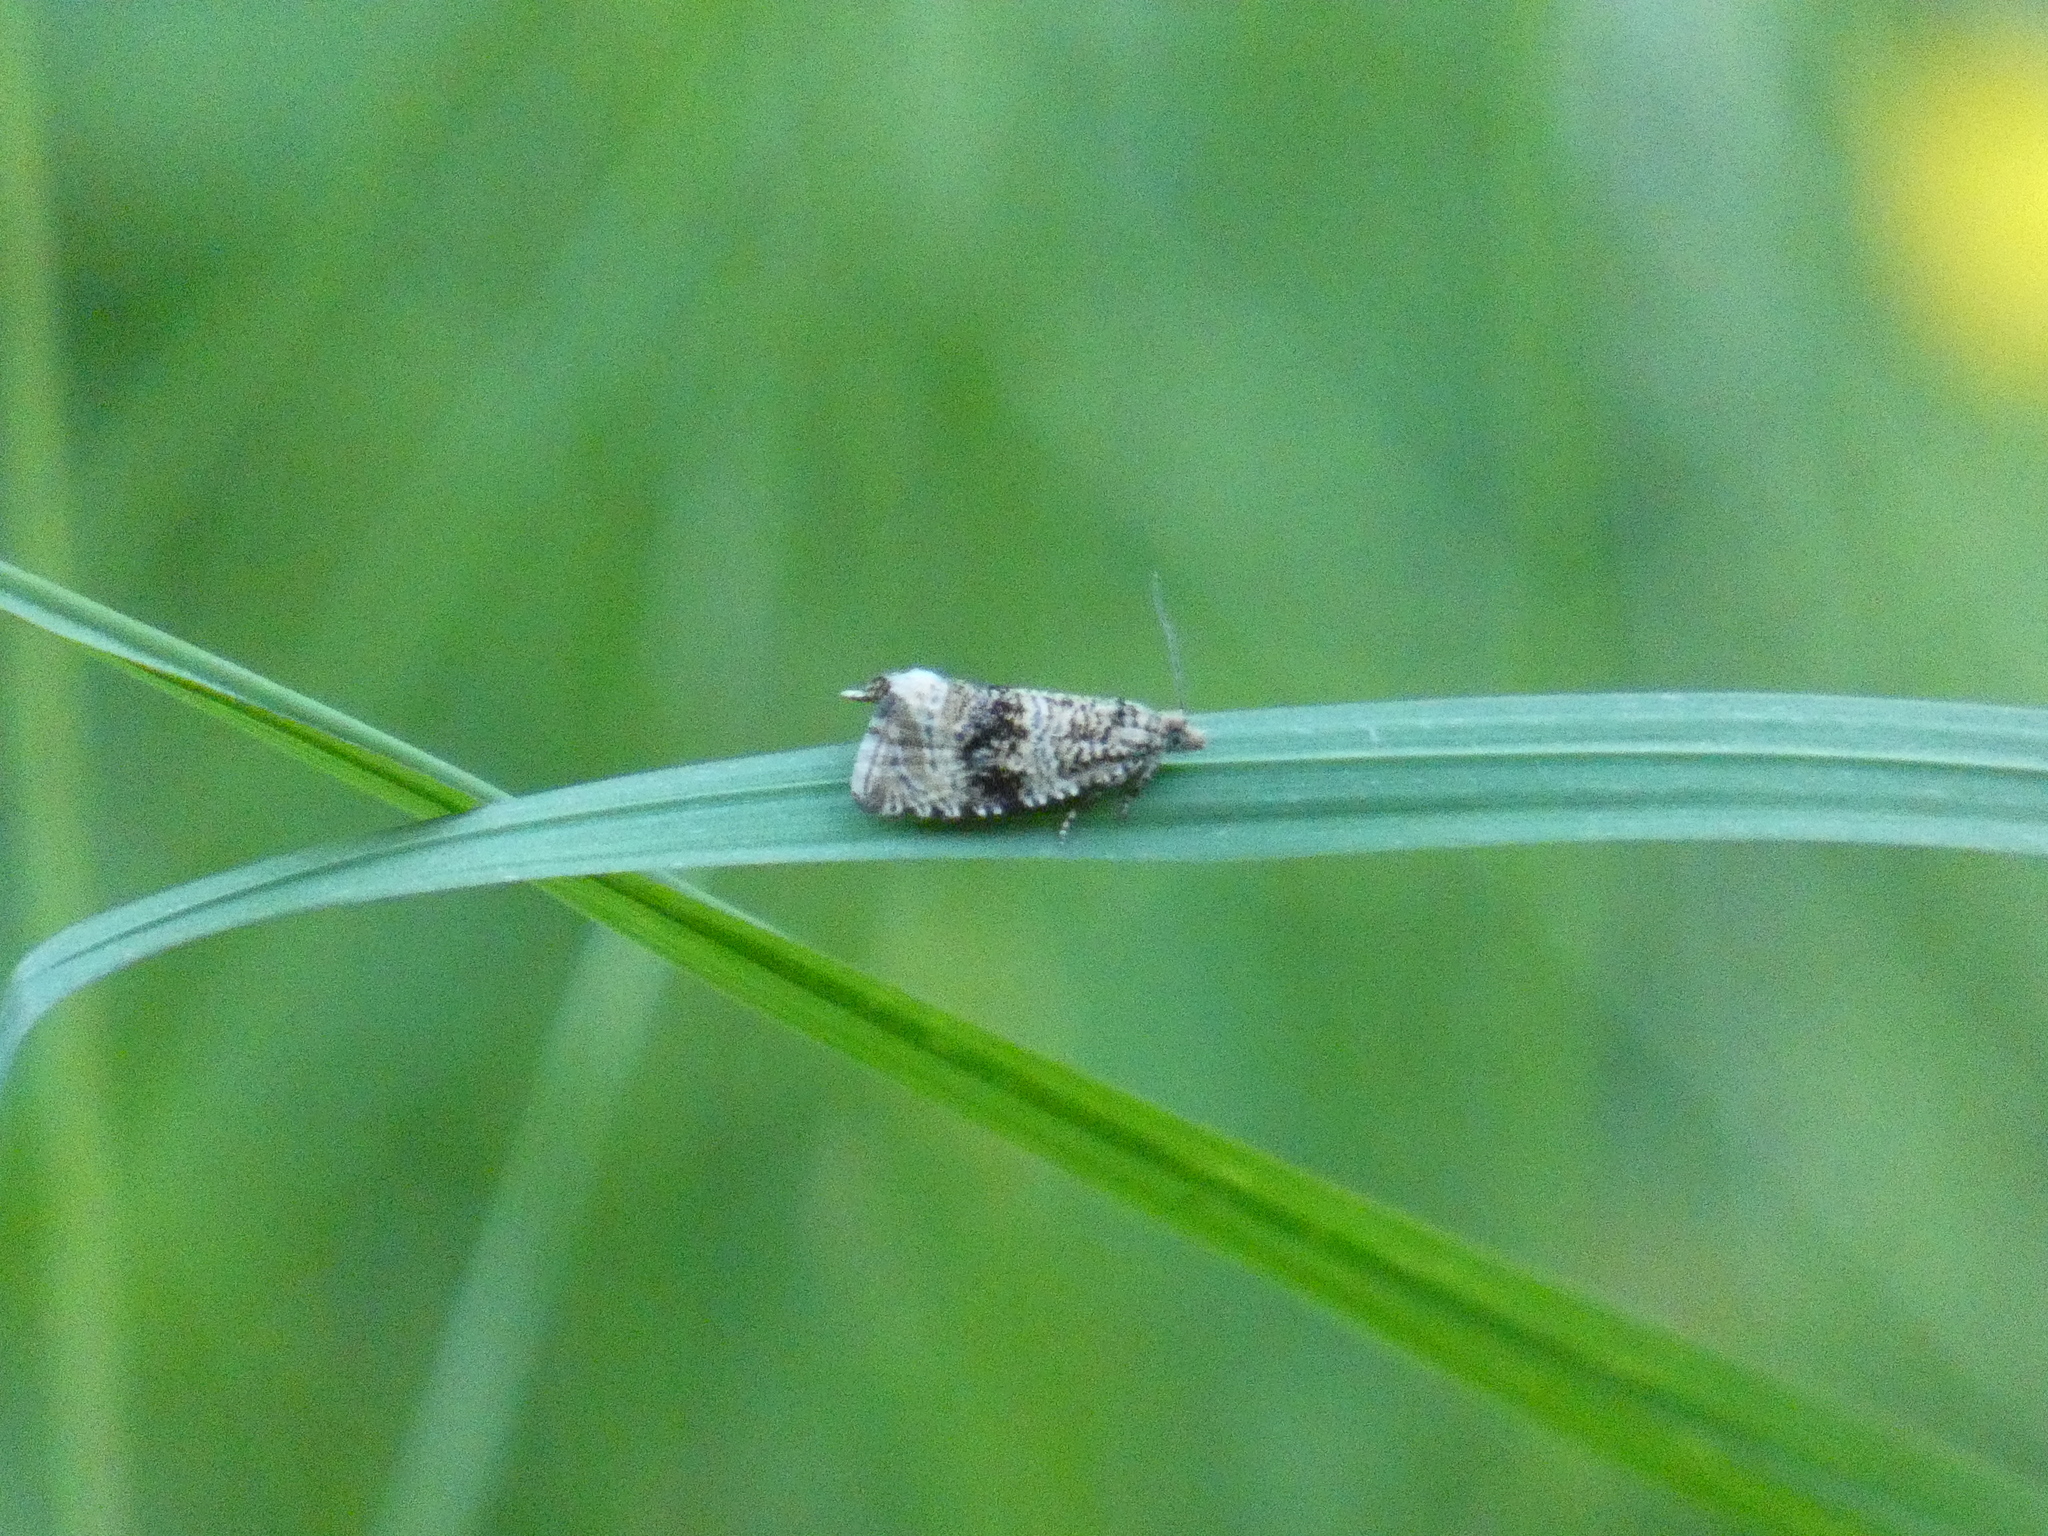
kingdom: Animalia
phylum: Arthropoda
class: Insecta
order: Lepidoptera
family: Tortricidae
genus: Syricoris
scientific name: Syricoris lacunana
